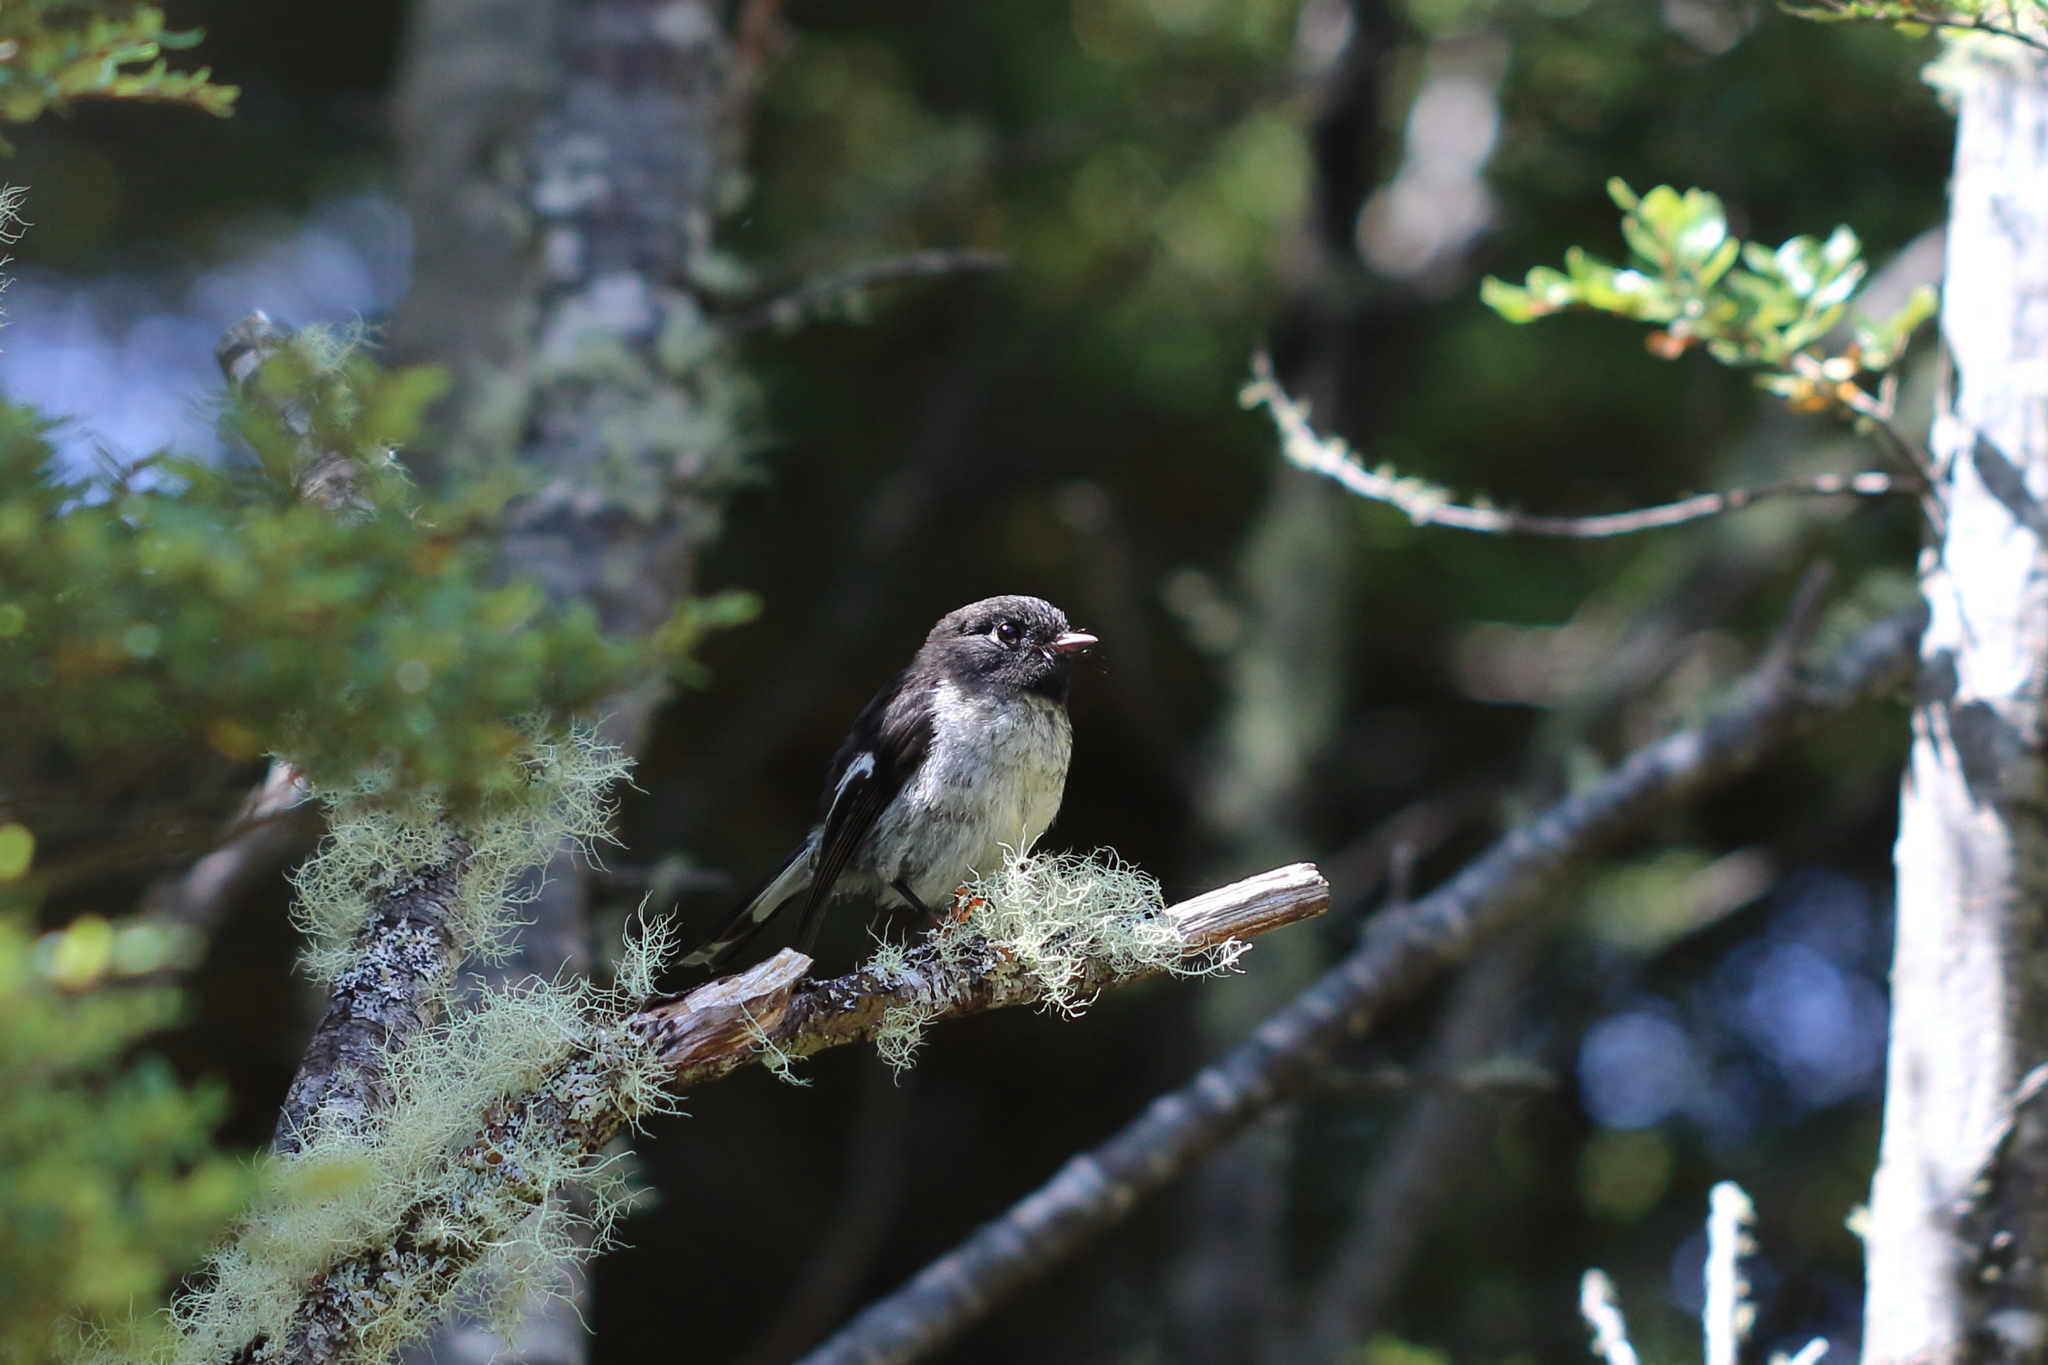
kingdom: Animalia
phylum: Chordata
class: Aves
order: Passeriformes
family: Petroicidae
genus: Petroica
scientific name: Petroica macrocephala
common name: Tomtit
